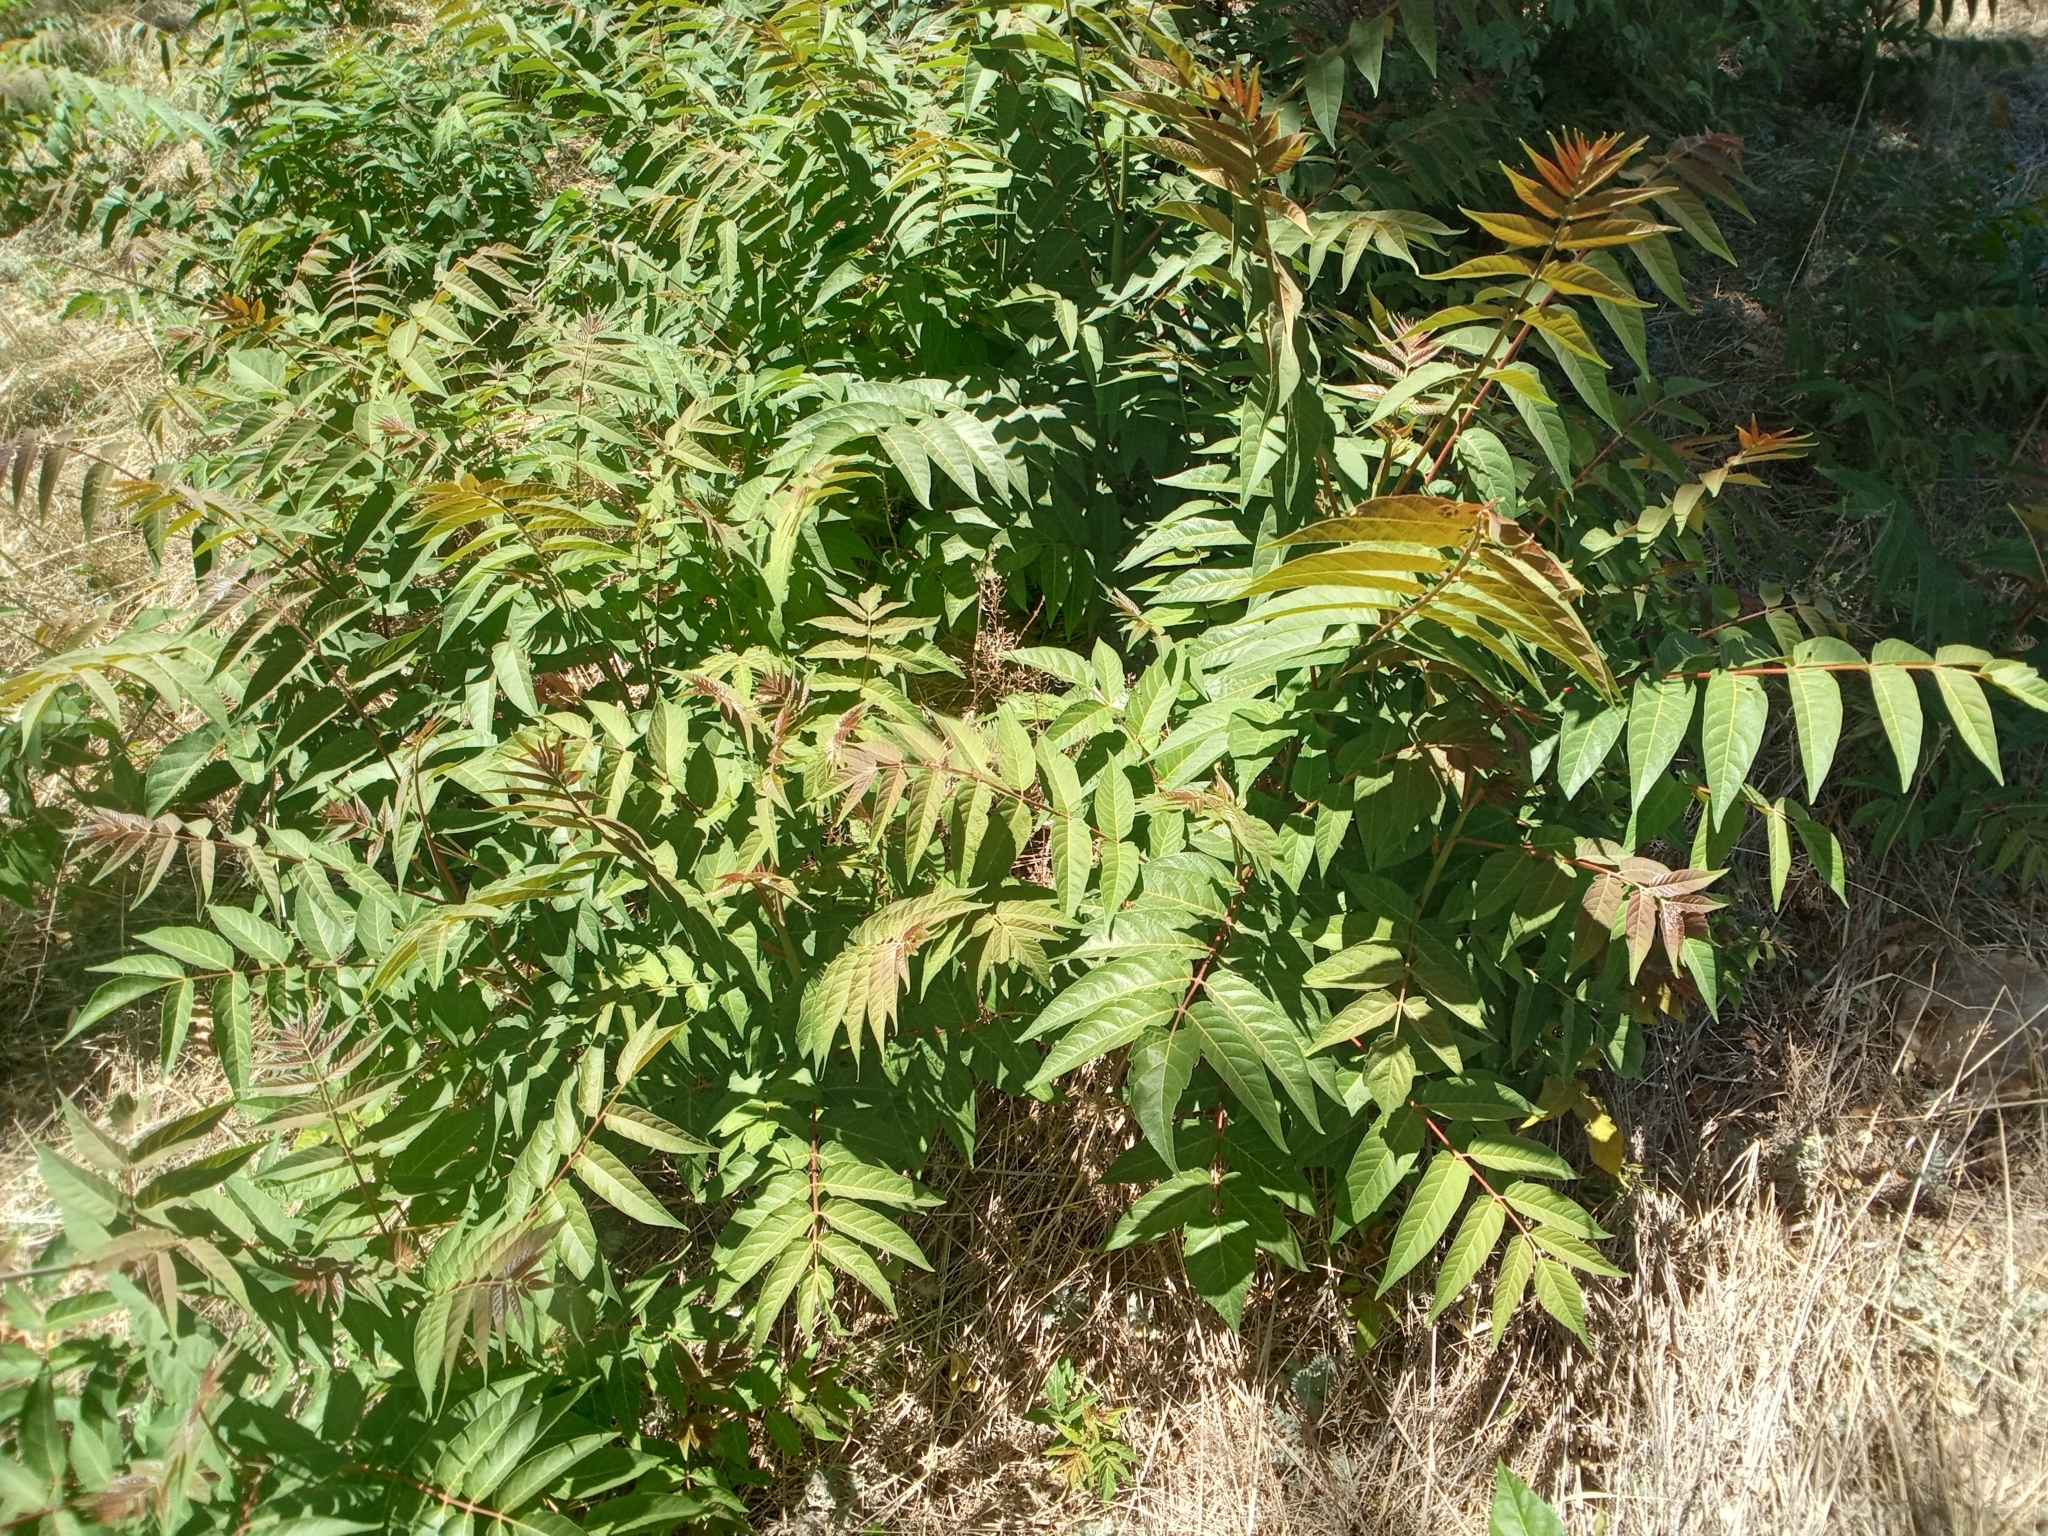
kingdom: Plantae
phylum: Tracheophyta
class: Magnoliopsida
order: Sapindales
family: Simaroubaceae
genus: Ailanthus
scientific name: Ailanthus altissima
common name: Tree-of-heaven
